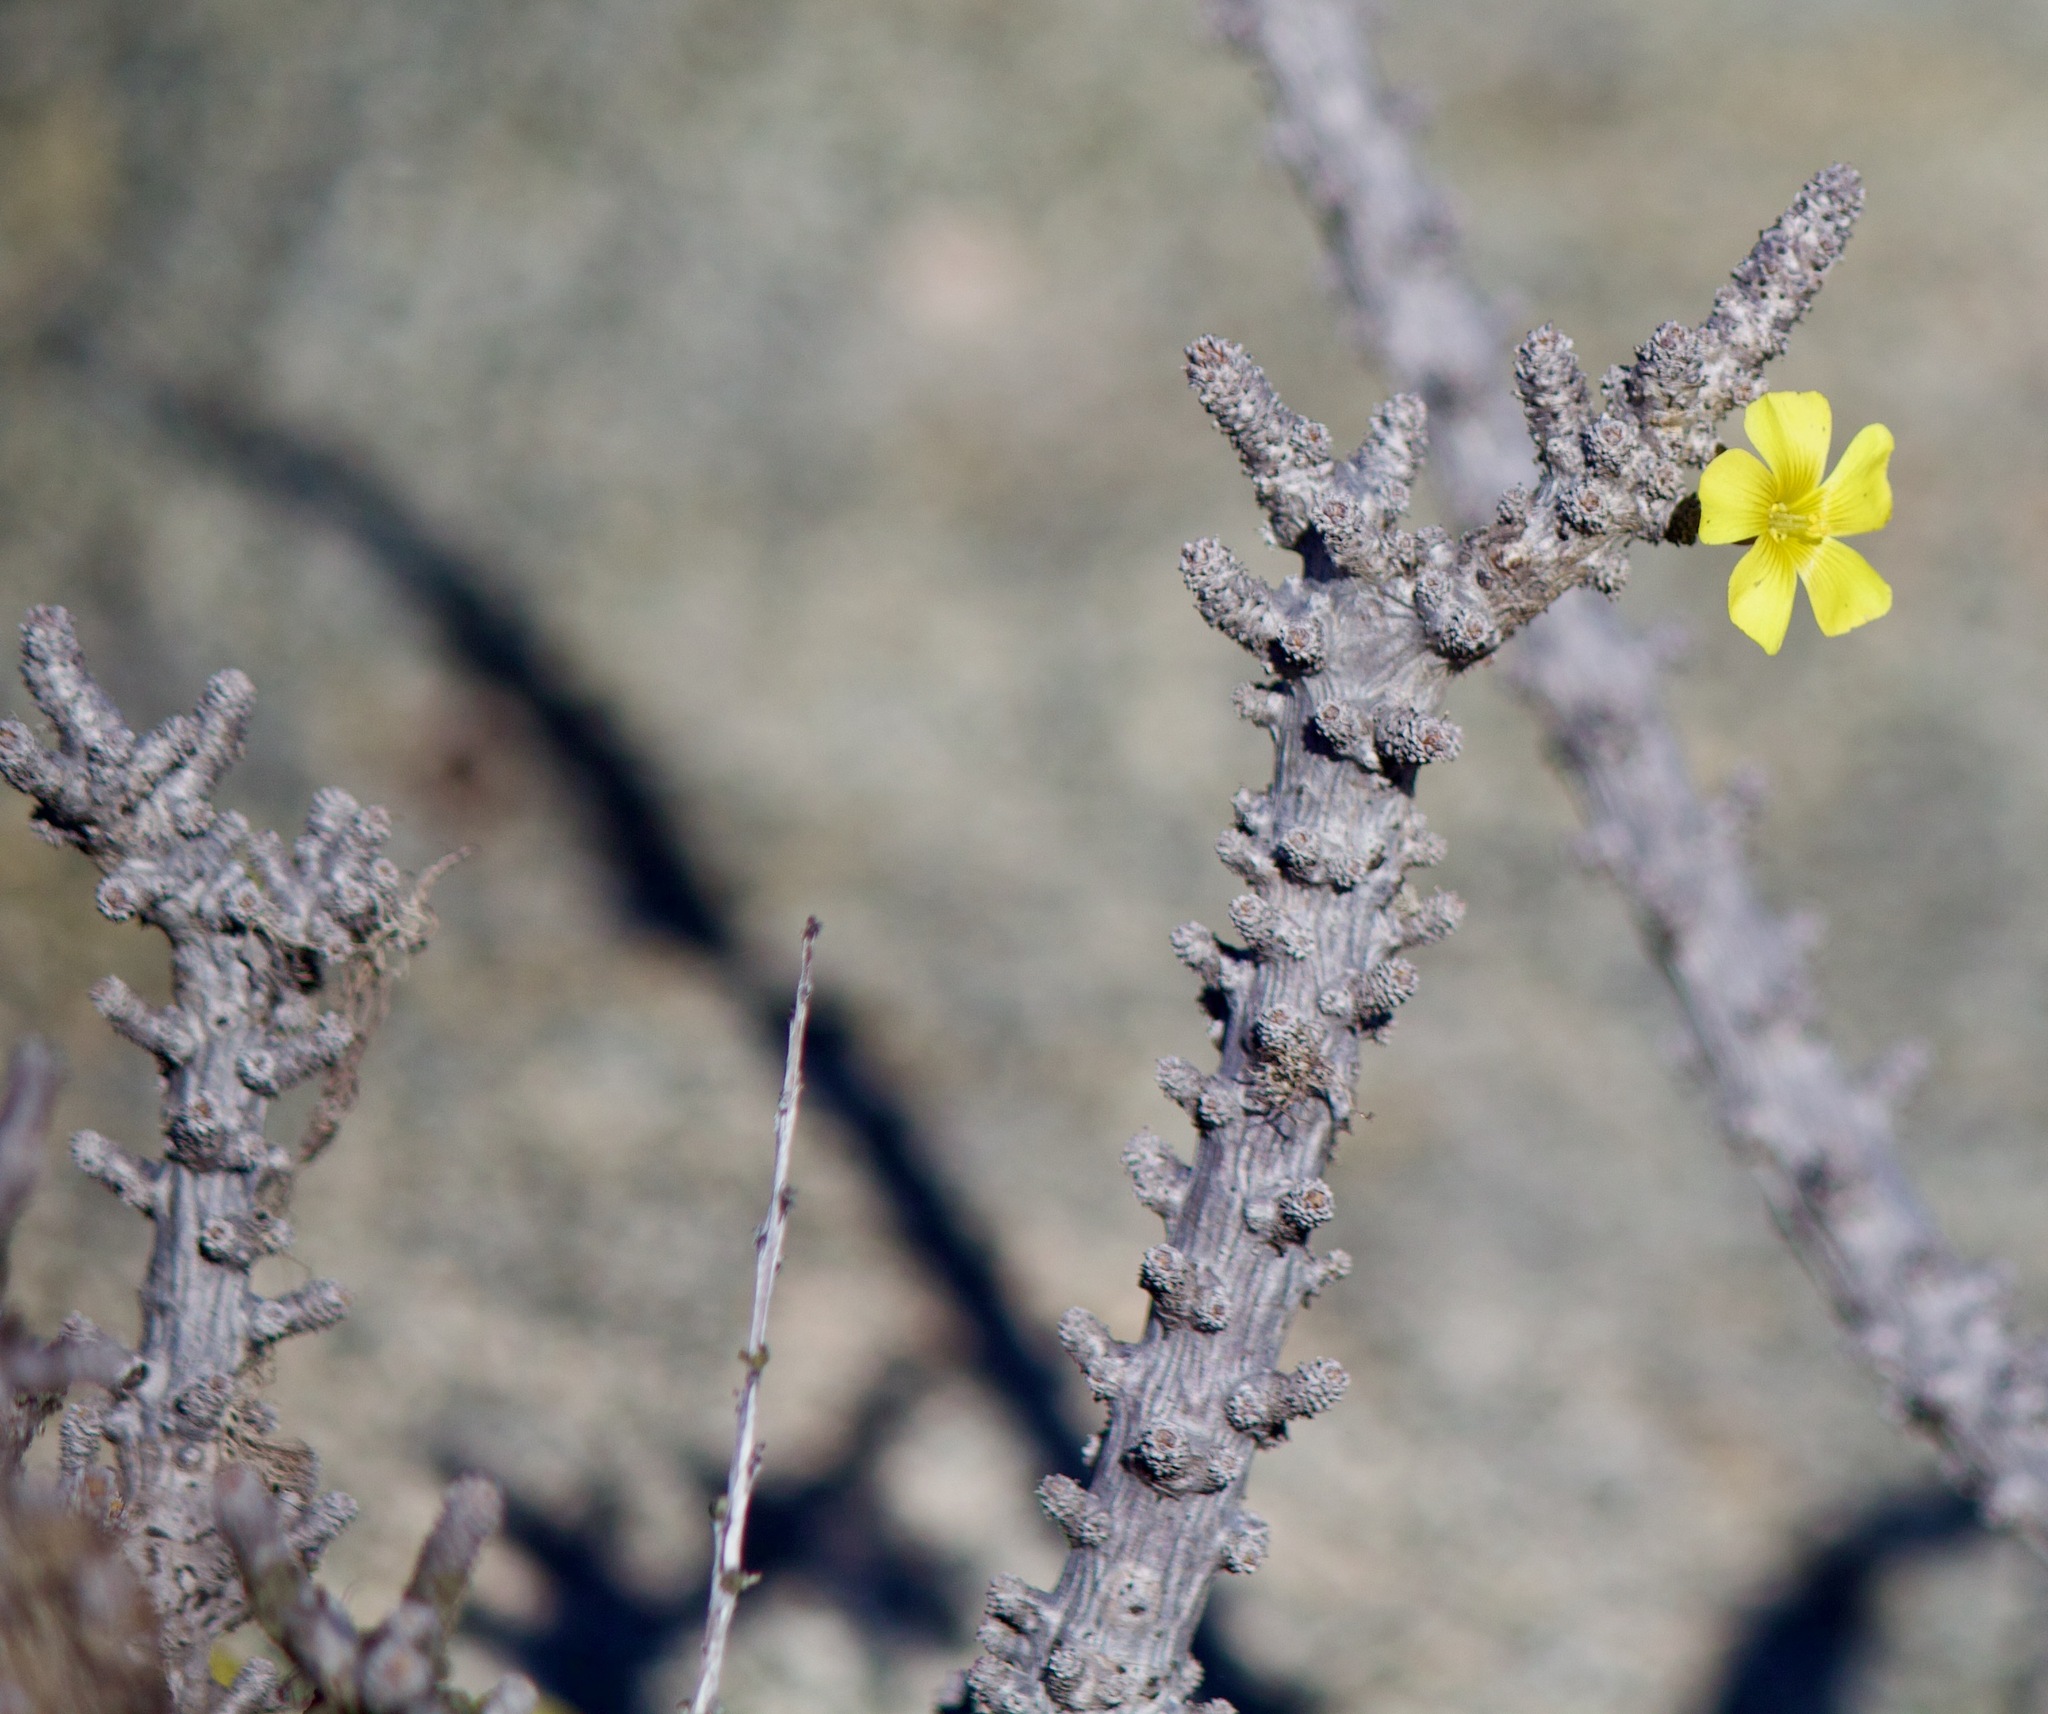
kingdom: Plantae
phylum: Tracheophyta
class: Magnoliopsida
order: Oxalidales
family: Oxalidaceae
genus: Oxalis
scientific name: Oxalis gigantea
